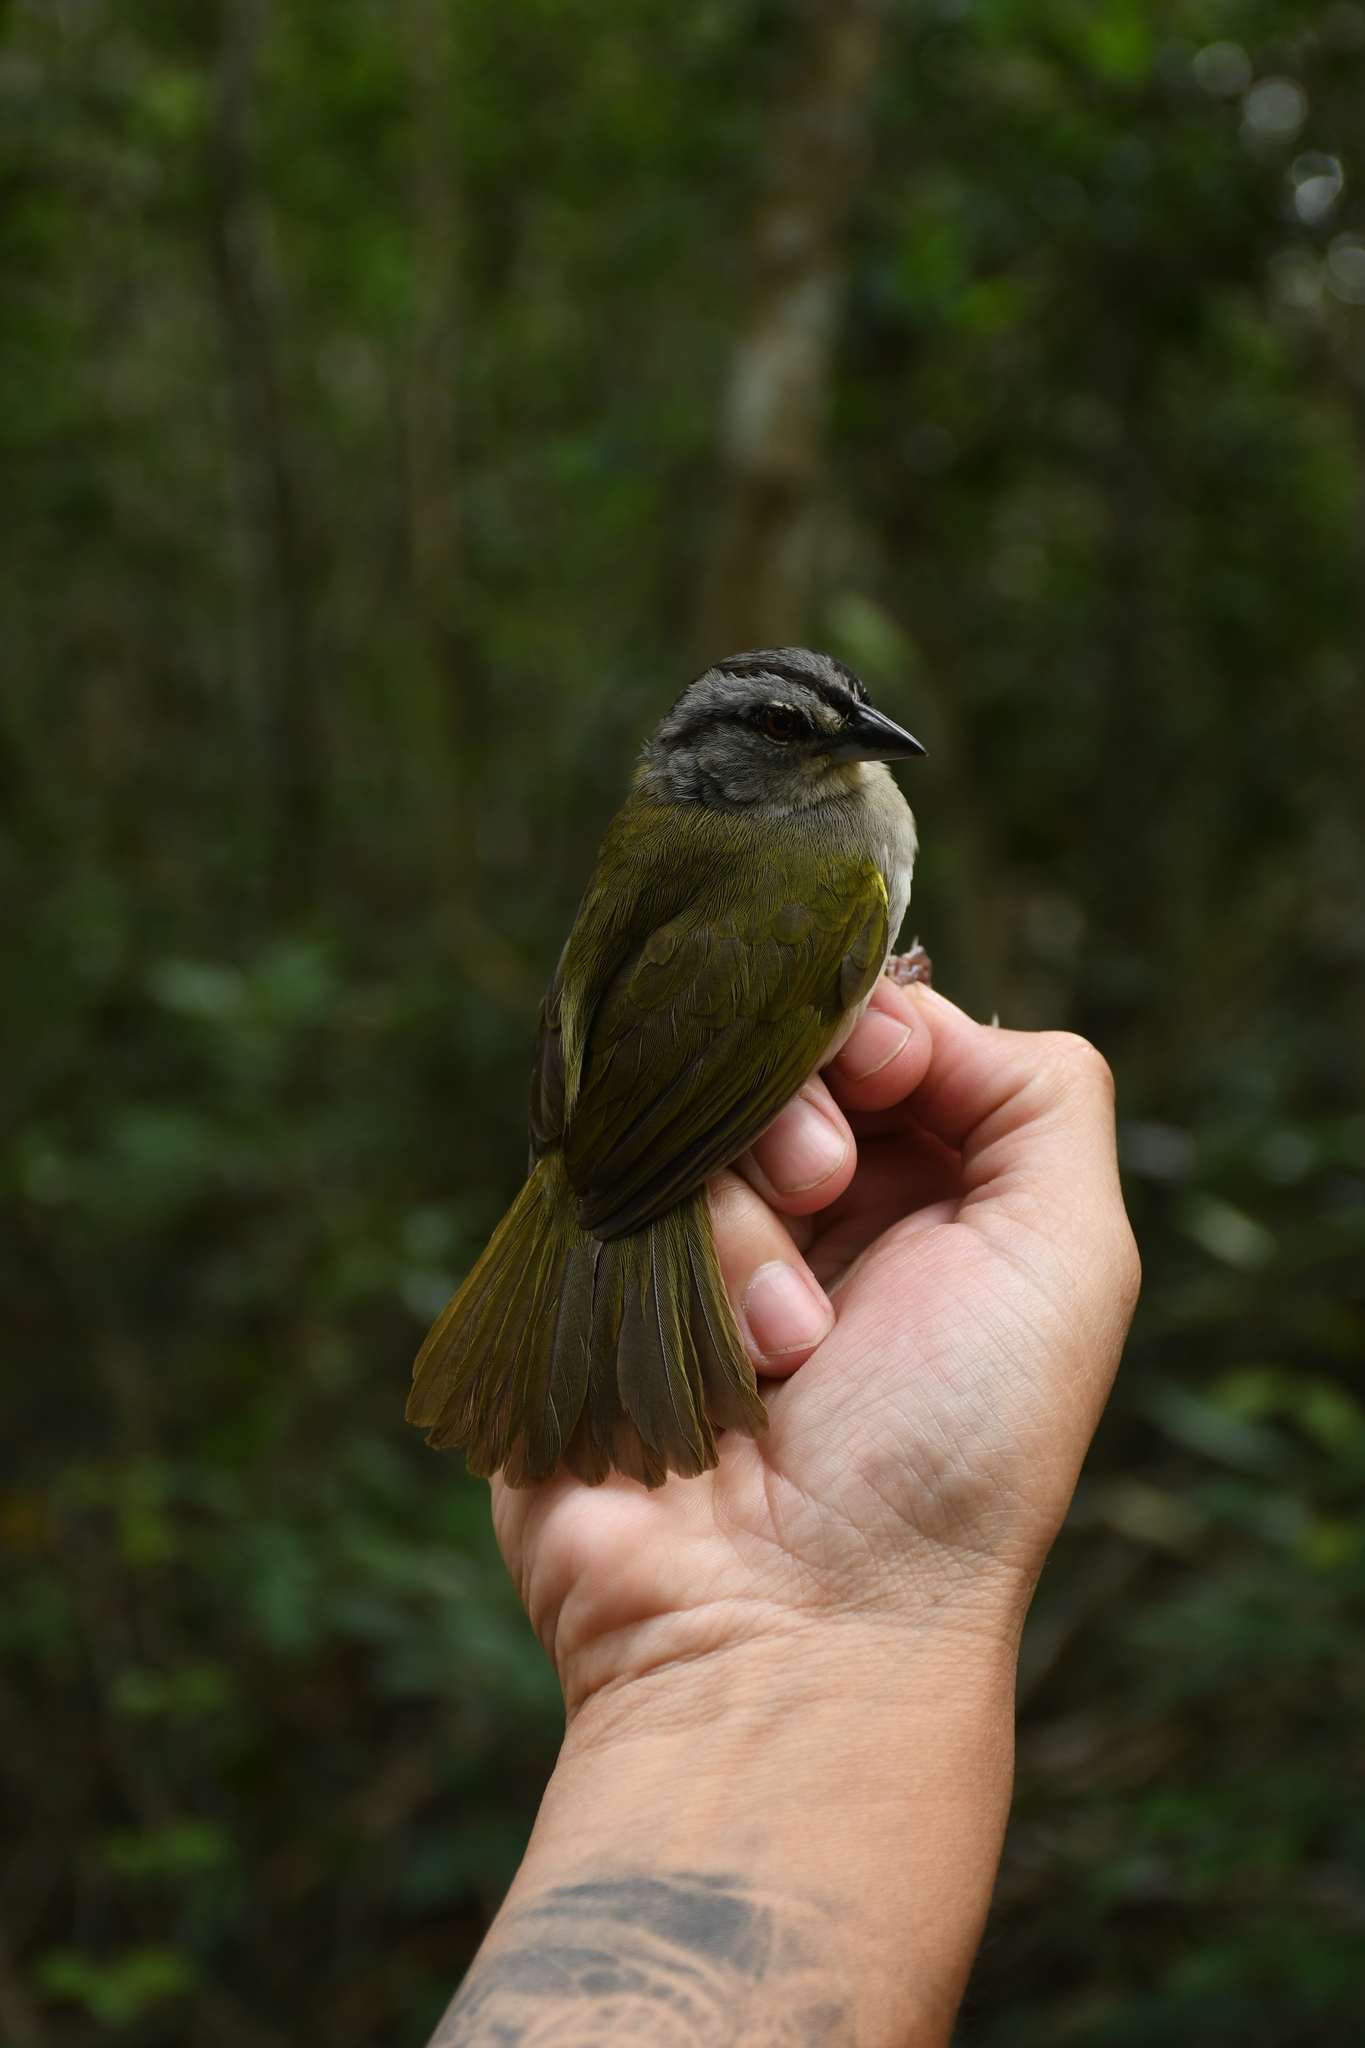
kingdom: Animalia
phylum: Chordata
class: Aves
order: Passeriformes
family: Passerellidae
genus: Arremonops
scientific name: Arremonops chloronotus
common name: Green-backed sparrow
